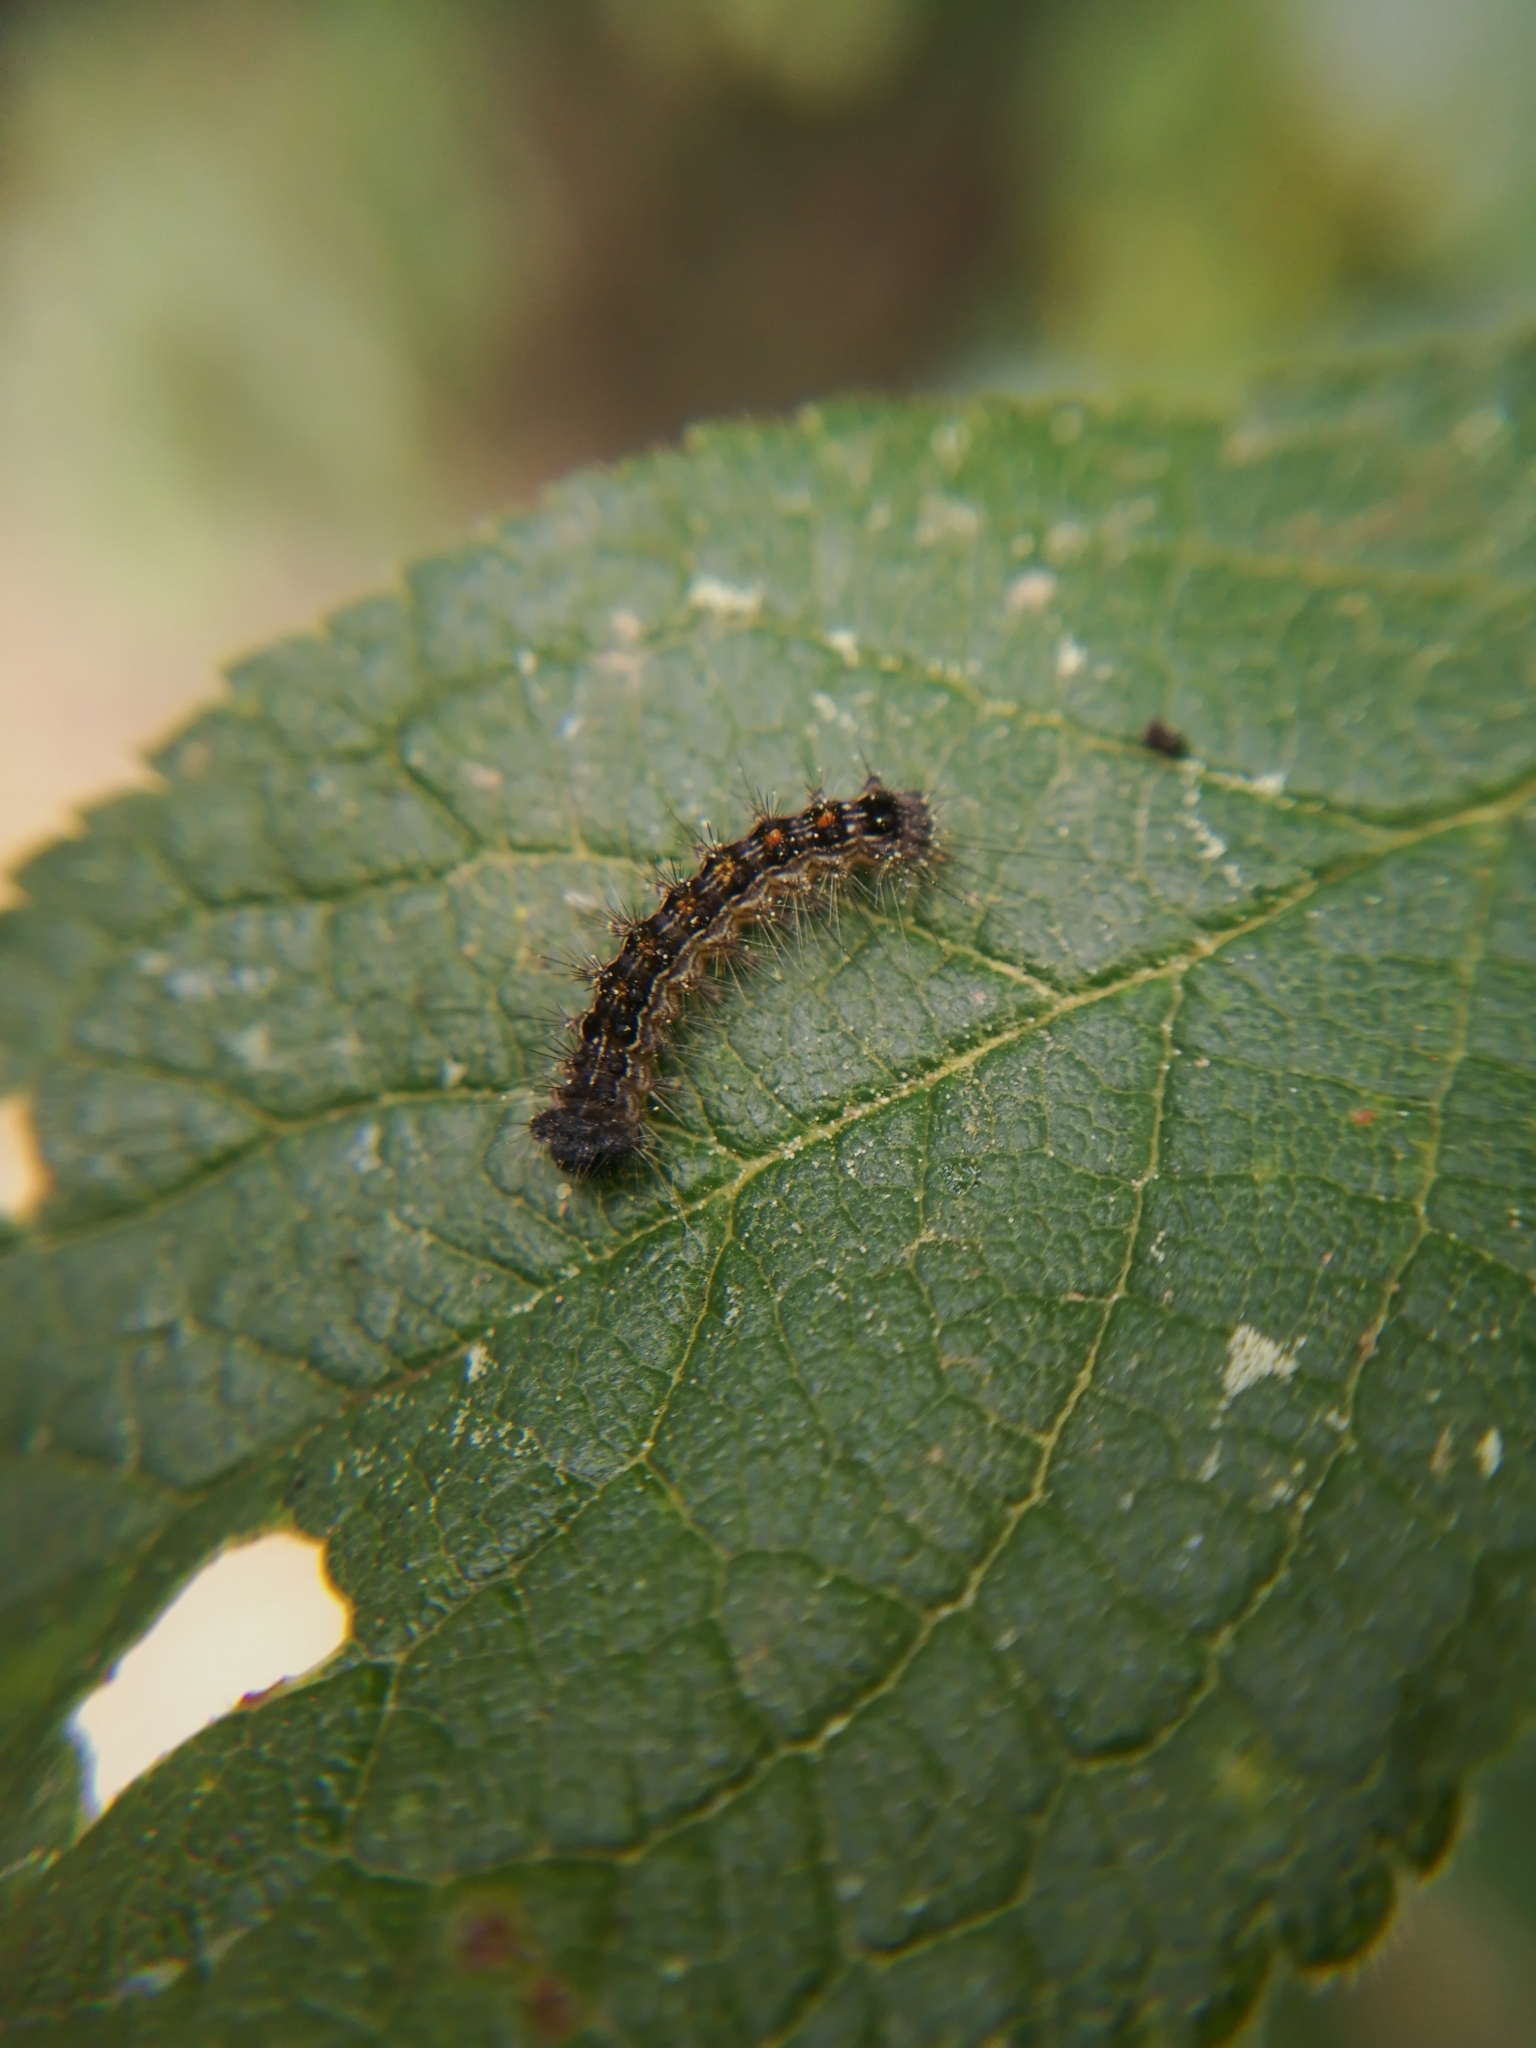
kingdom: Animalia
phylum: Arthropoda
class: Insecta
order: Lepidoptera
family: Erebidae
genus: Lymantria
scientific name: Lymantria dispar
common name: Gypsy moth
